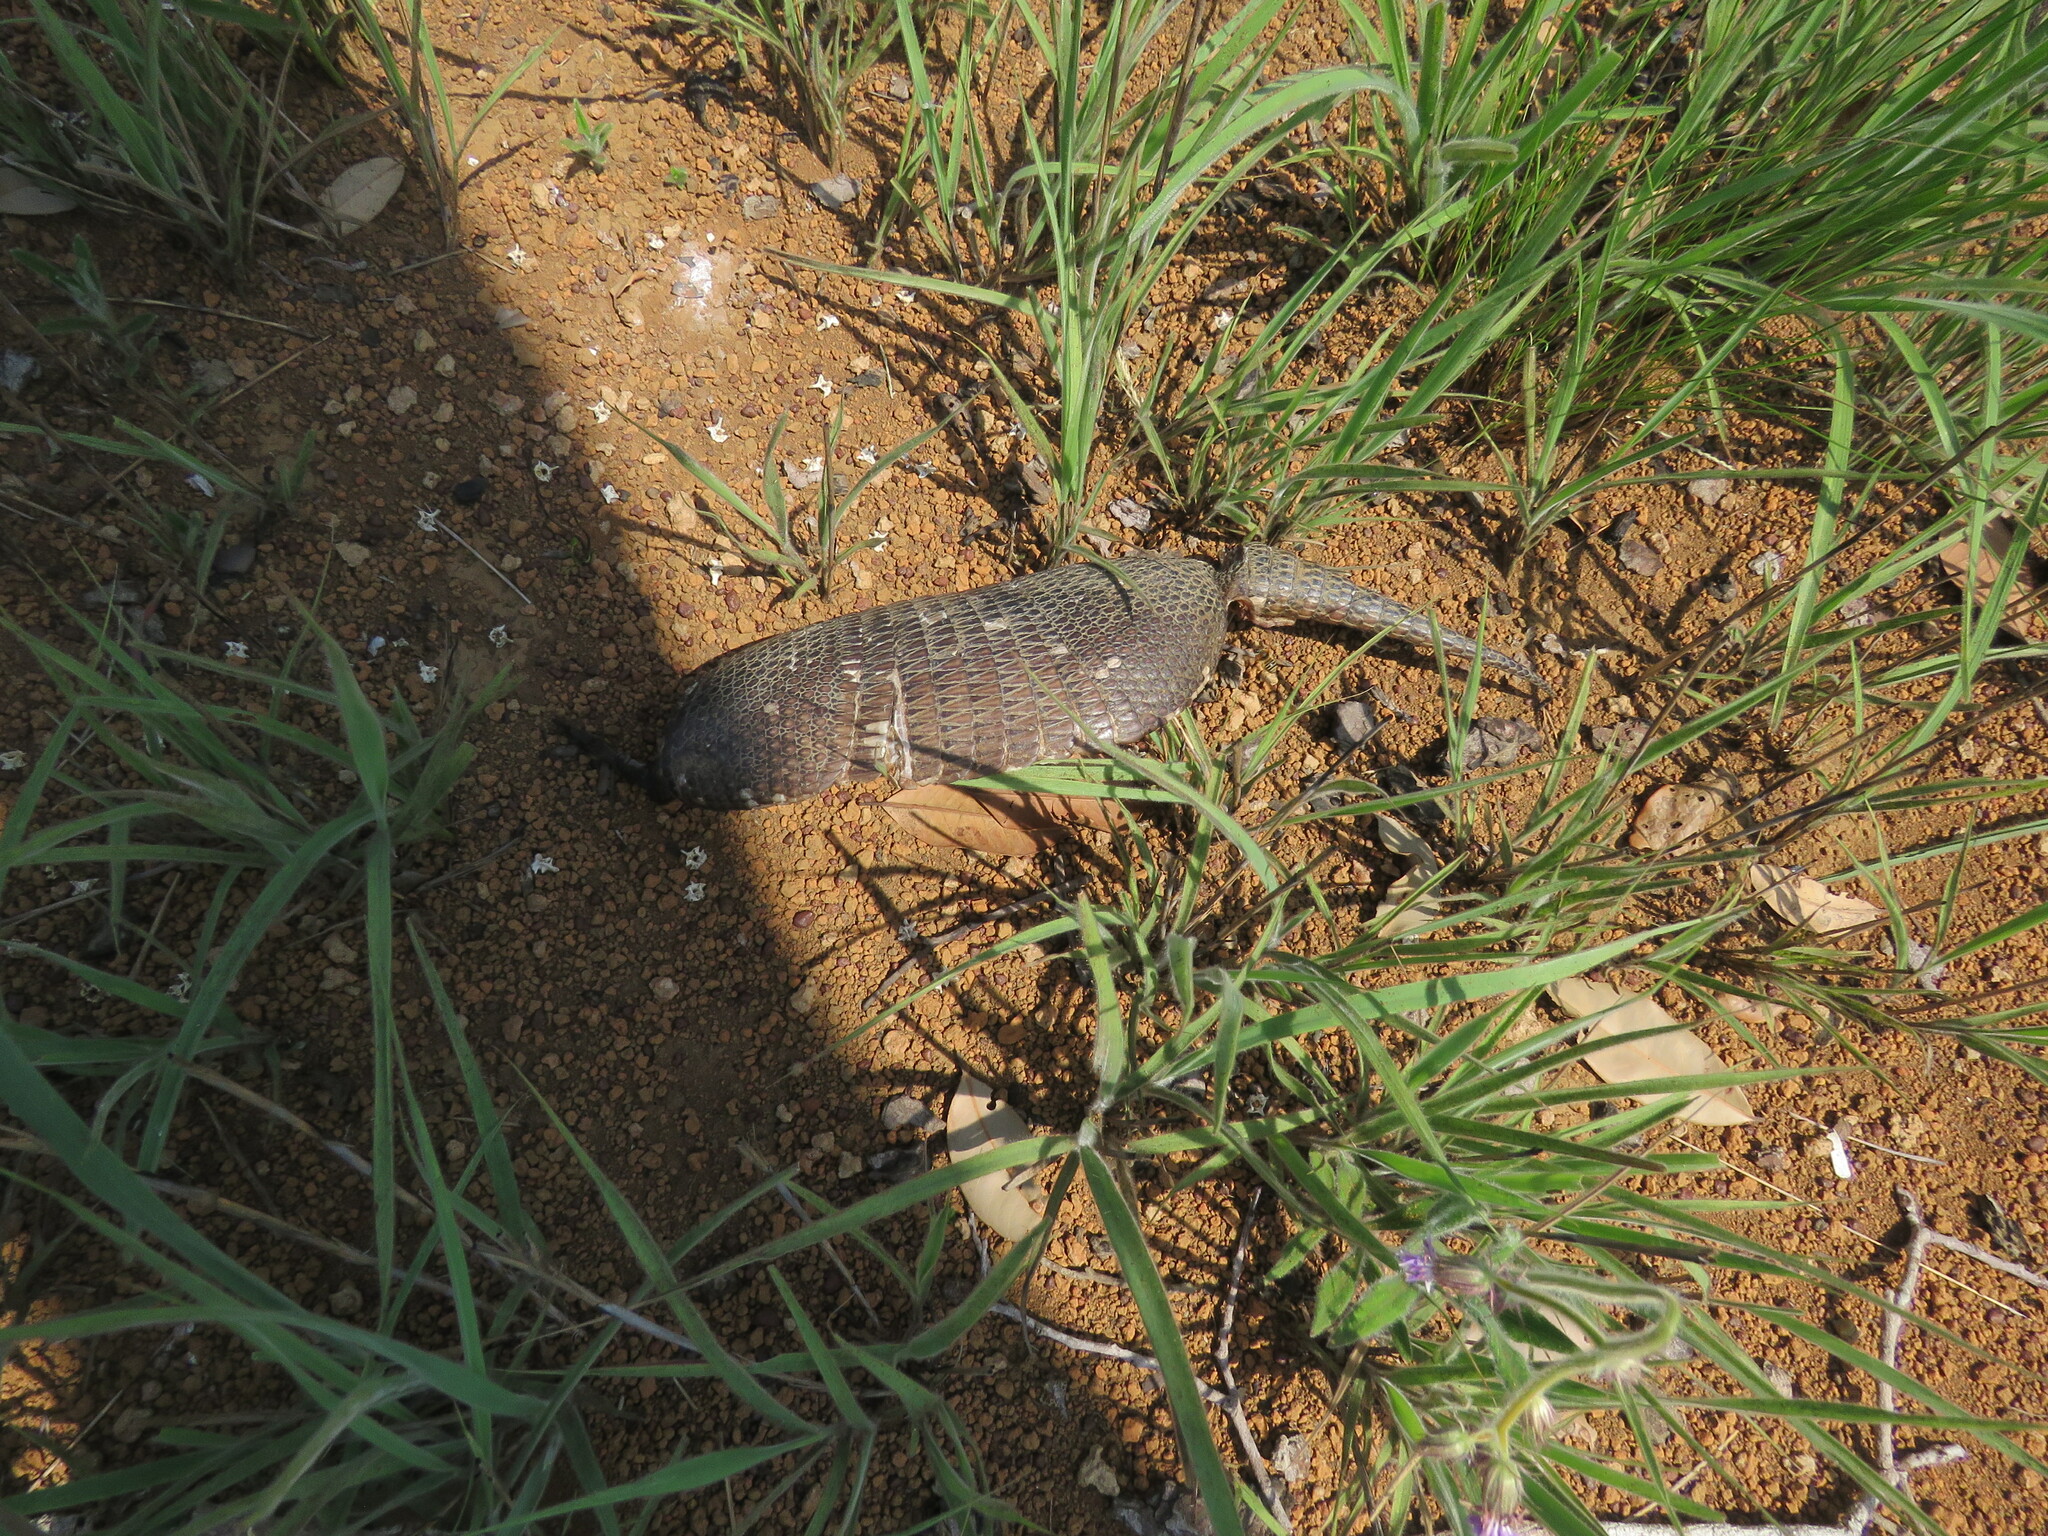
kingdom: Animalia
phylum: Chordata
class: Mammalia
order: Cingulata
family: Dasypodidae
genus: Dasypus
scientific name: Dasypus novemcinctus
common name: Nine-banded armadillo
